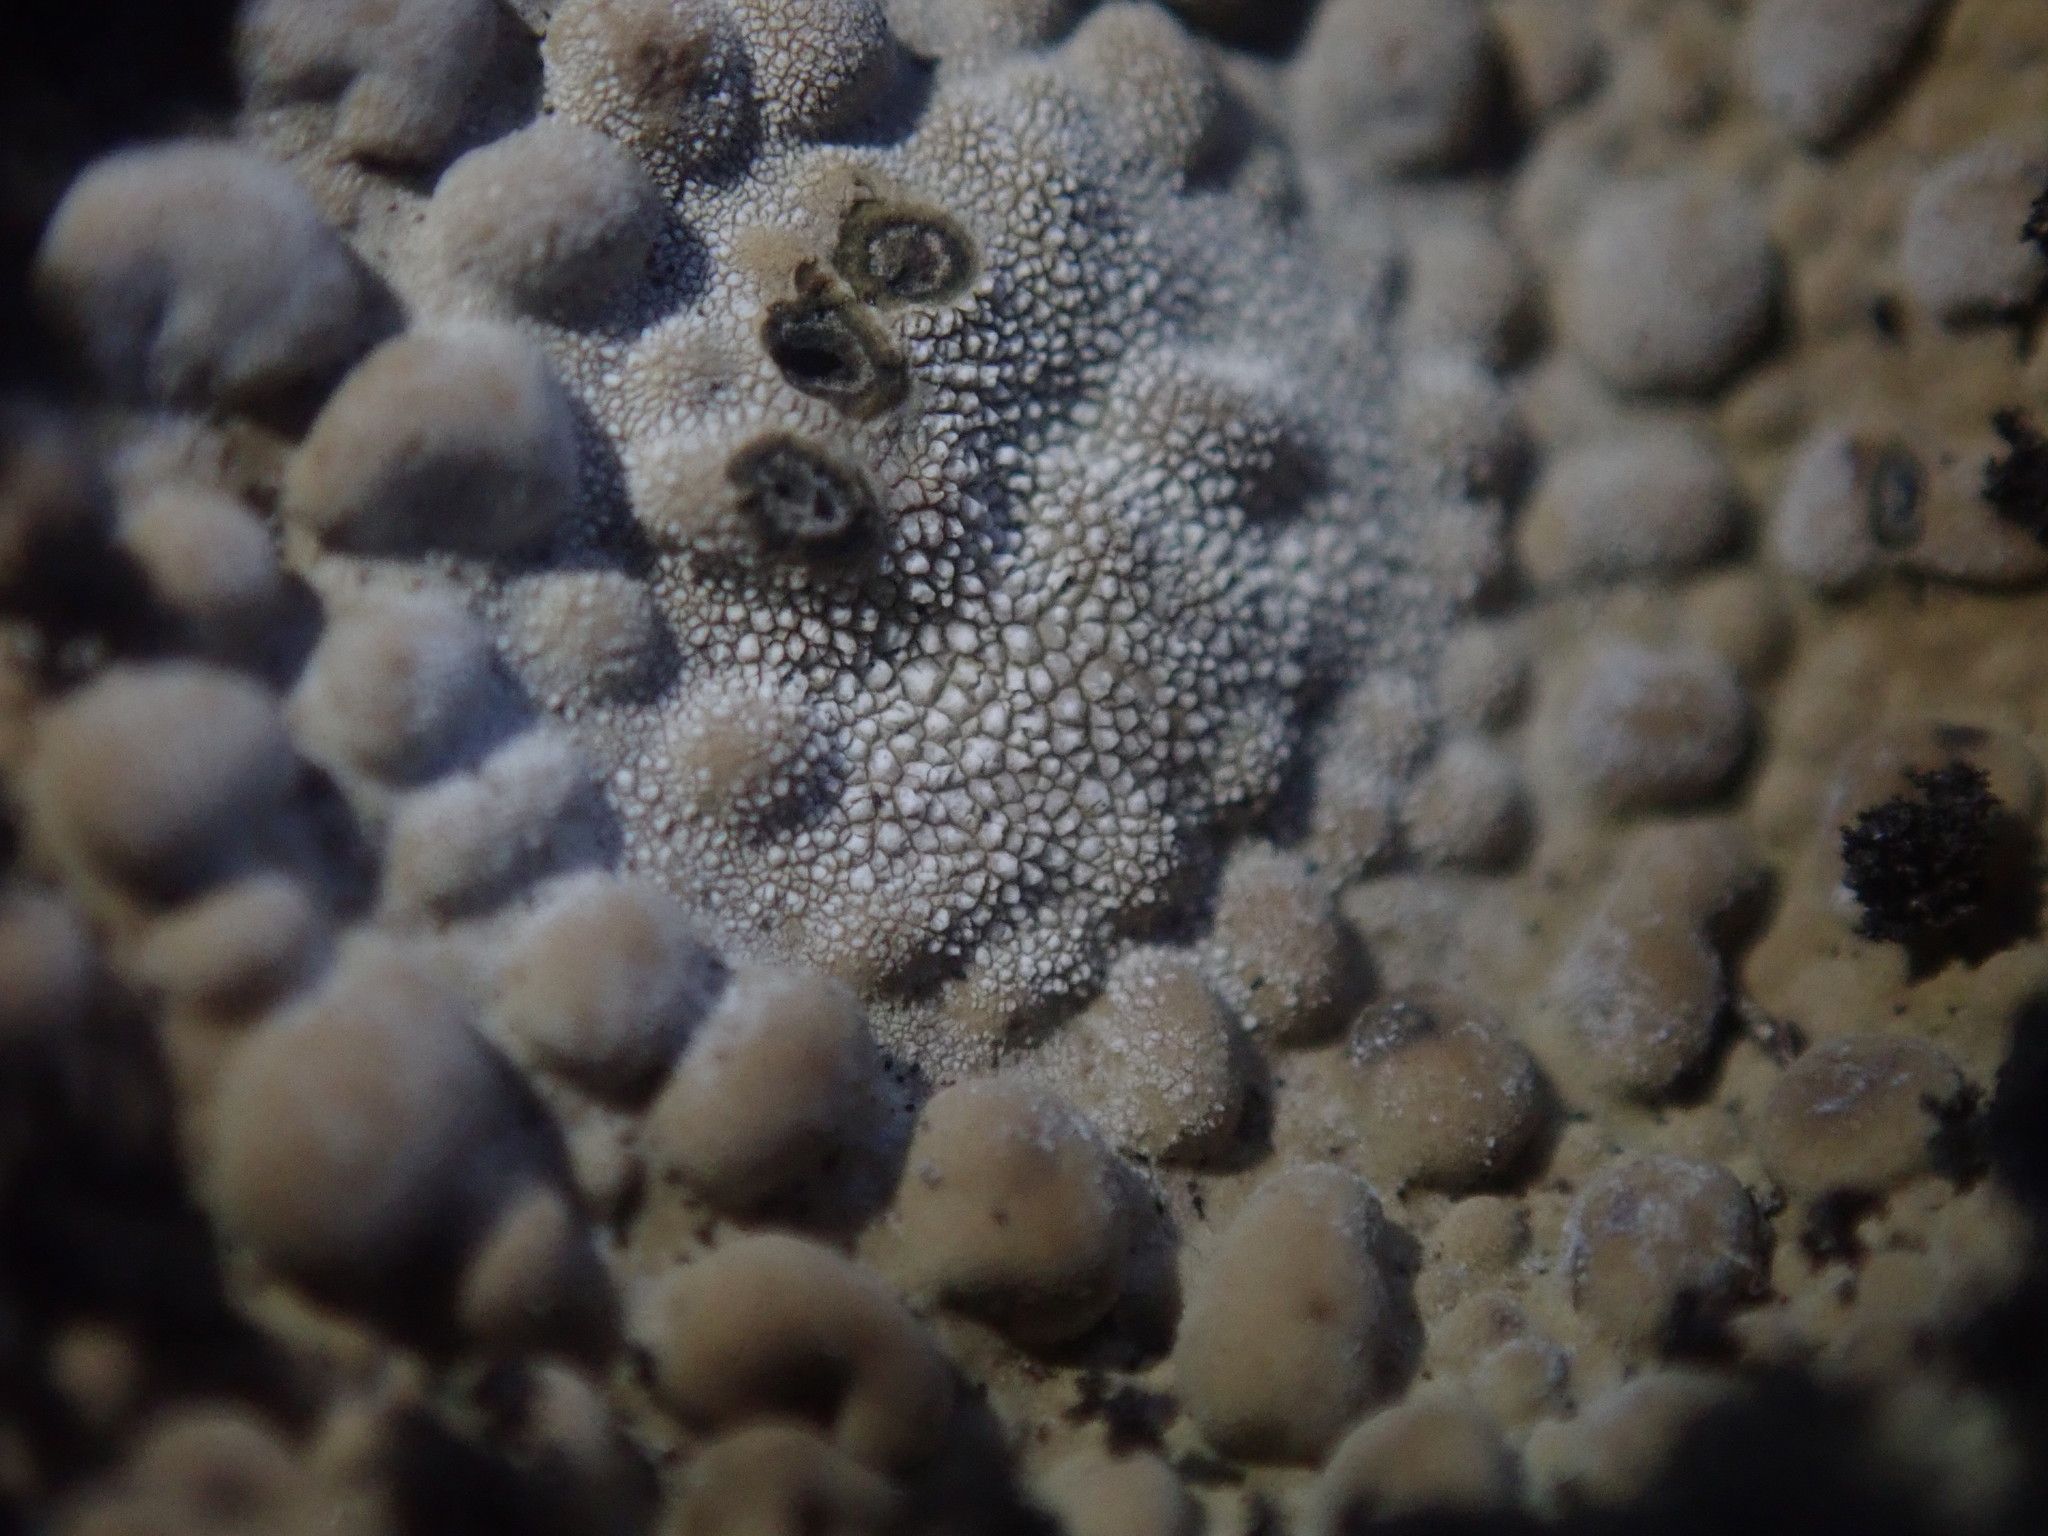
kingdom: Fungi
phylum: Ascomycota
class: Lecanoromycetes
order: Umbilicariales
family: Umbilicariaceae
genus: Lasallia
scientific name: Lasallia pustulata
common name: Blistered toadskin lichen
